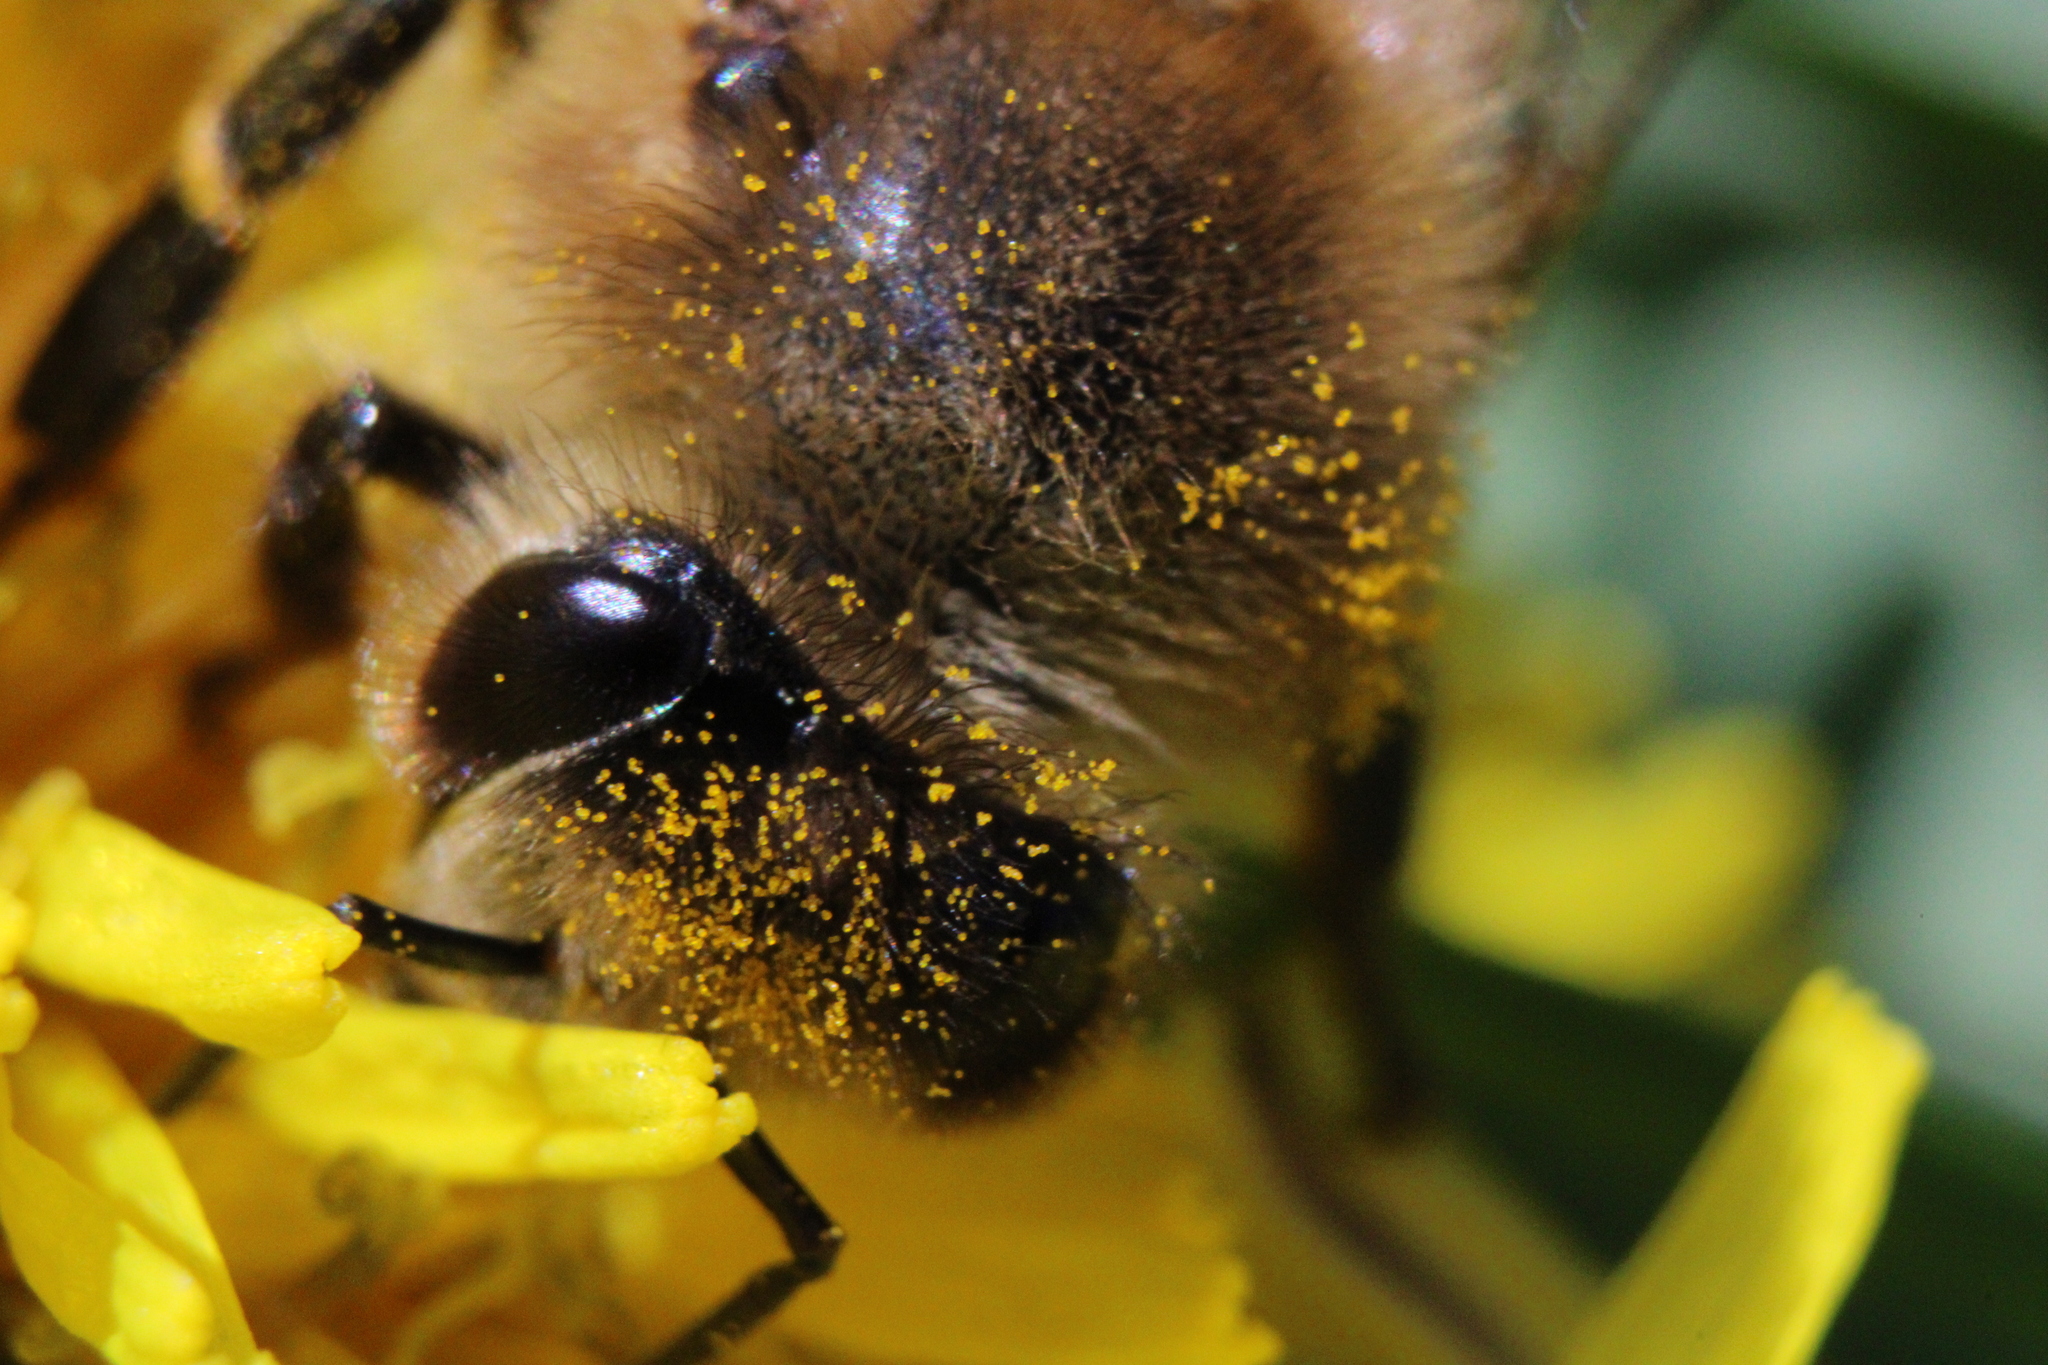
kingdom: Animalia
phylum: Arthropoda
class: Insecta
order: Hymenoptera
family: Apidae
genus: Apis
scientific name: Apis mellifera
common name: Honey bee
